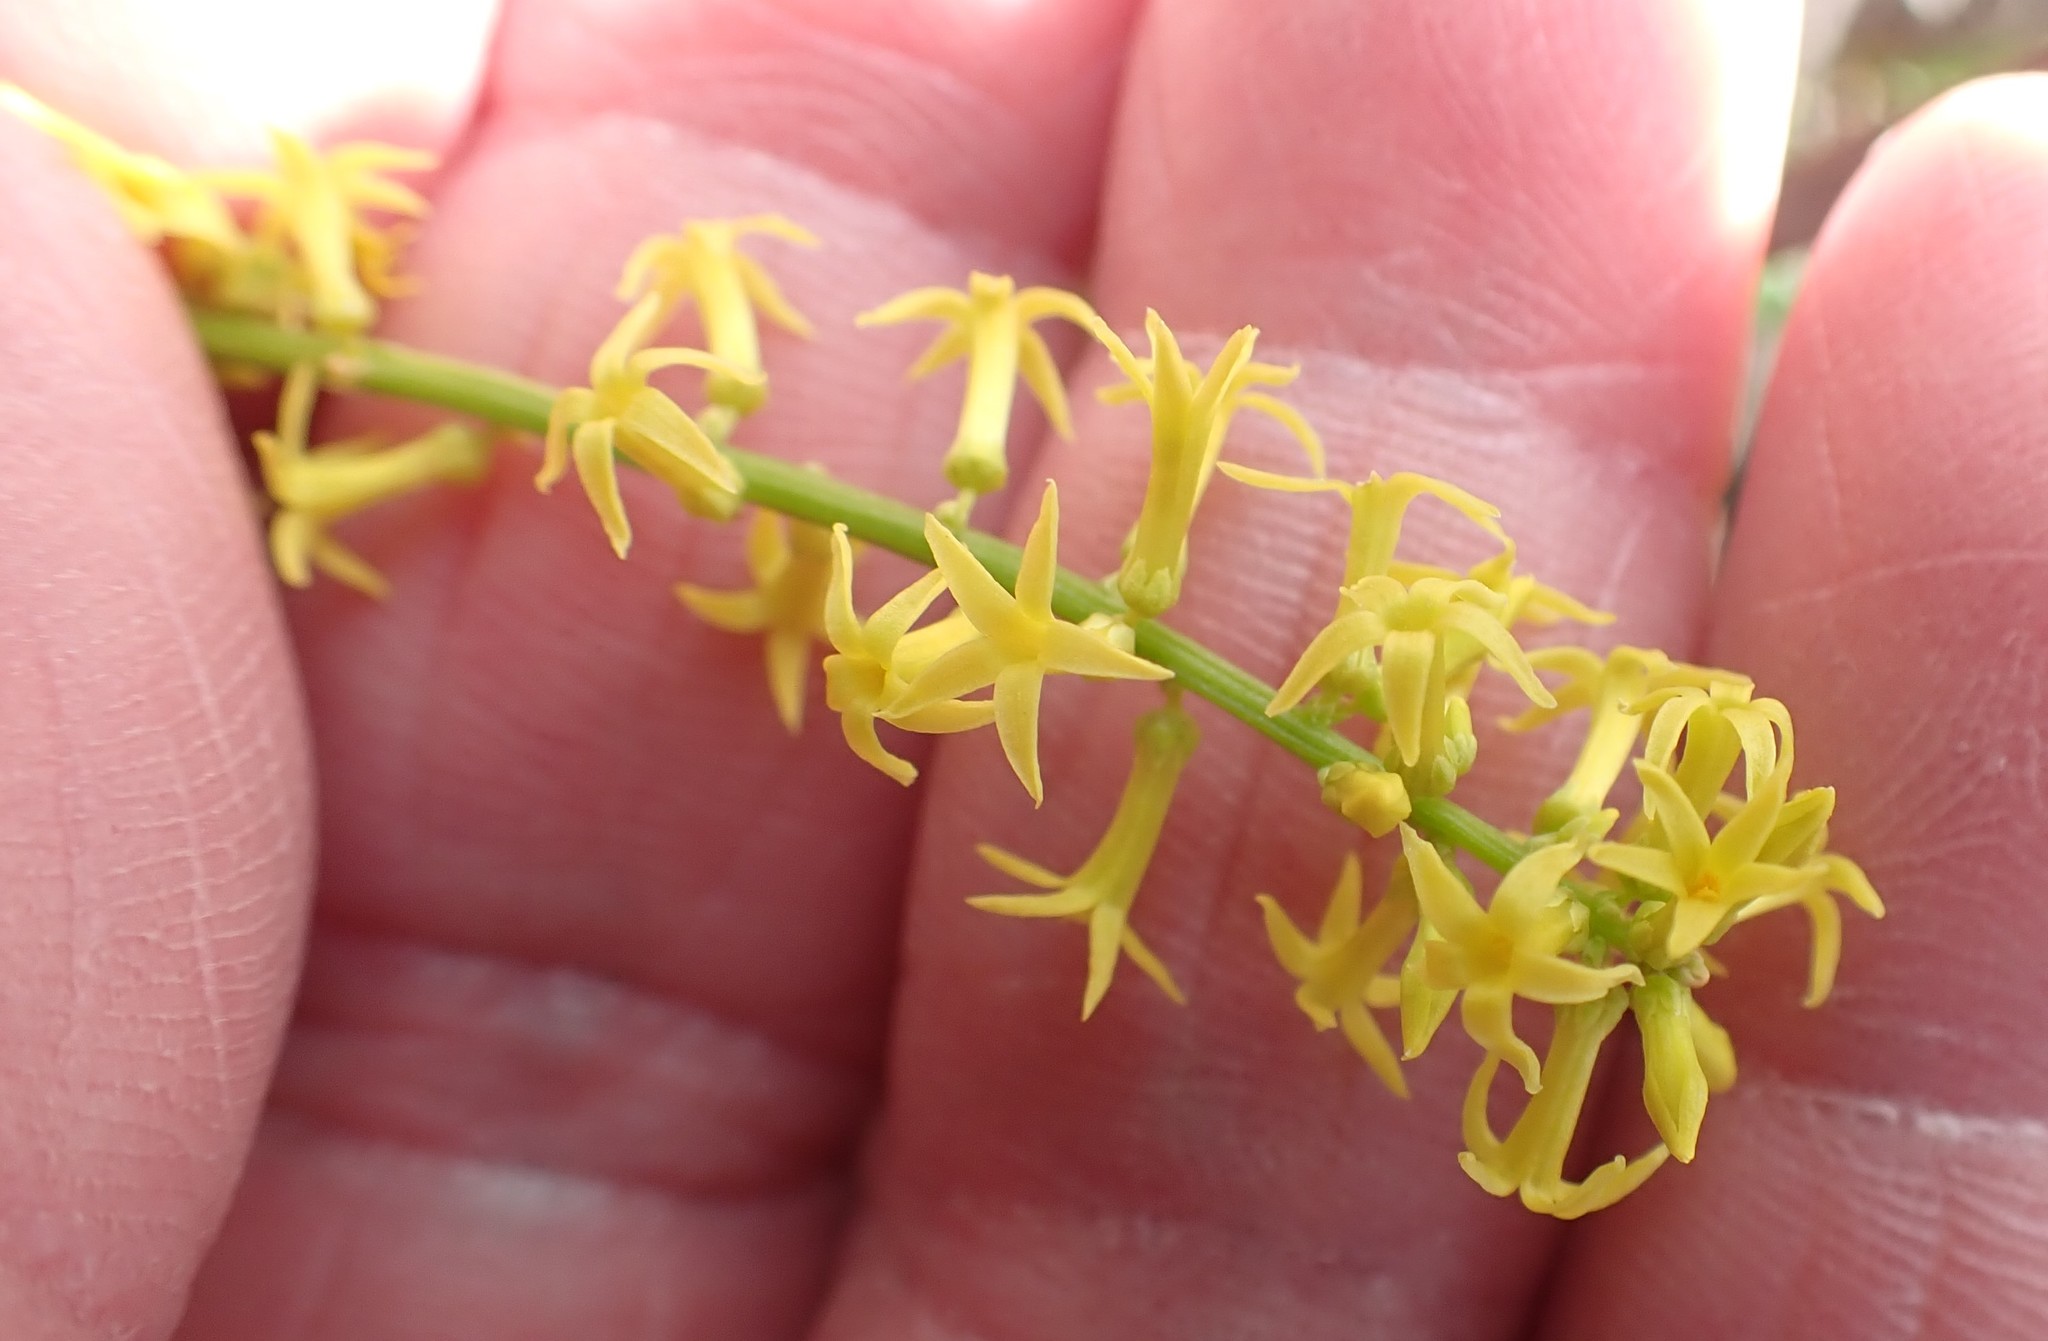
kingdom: Plantae
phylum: Tracheophyta
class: Magnoliopsida
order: Celastrales
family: Celastraceae
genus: Stackhousia
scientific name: Stackhousia viminea
